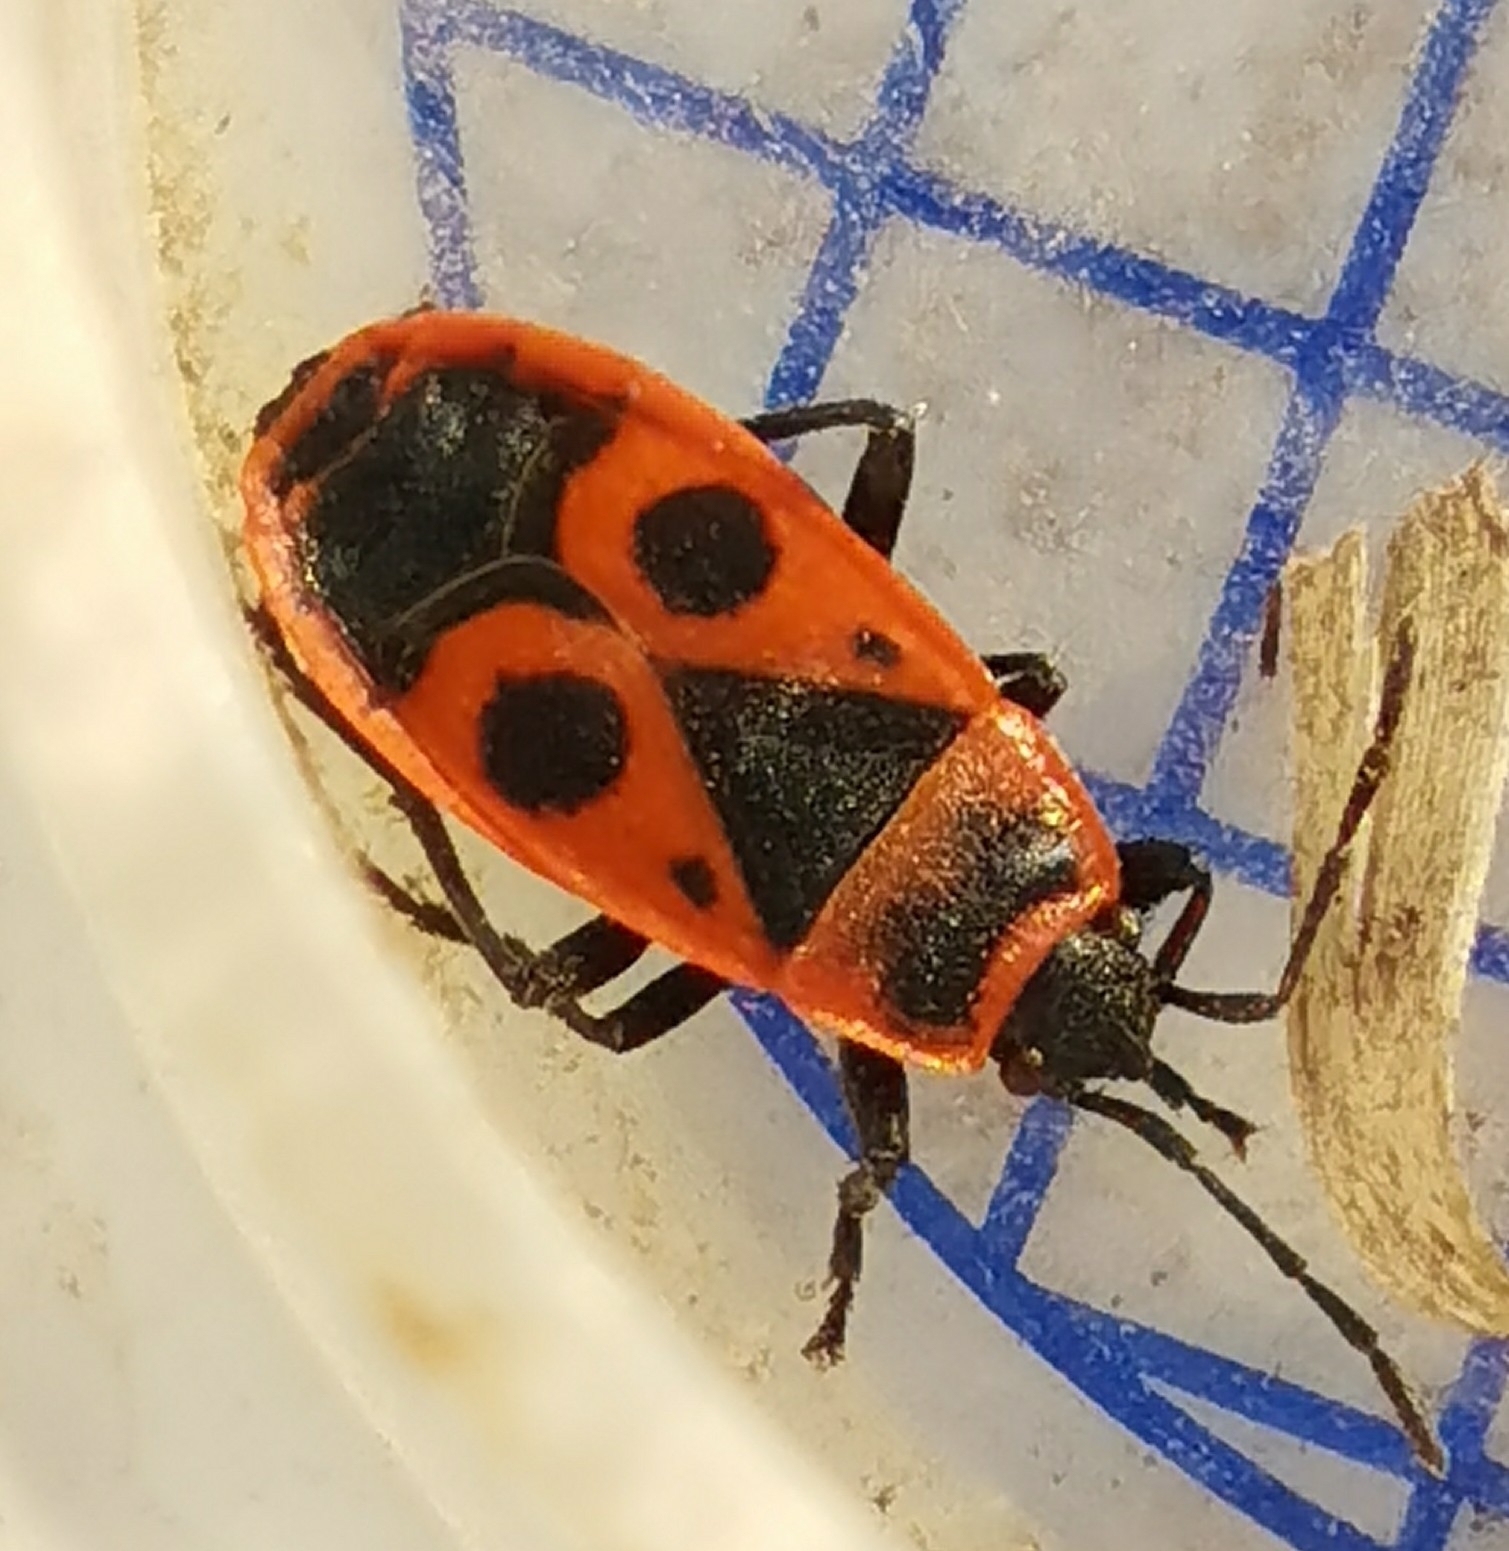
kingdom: Animalia
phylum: Arthropoda
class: Insecta
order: Hemiptera
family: Pyrrhocoridae
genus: Pyrrhocoris
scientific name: Pyrrhocoris apterus
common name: Firebug
